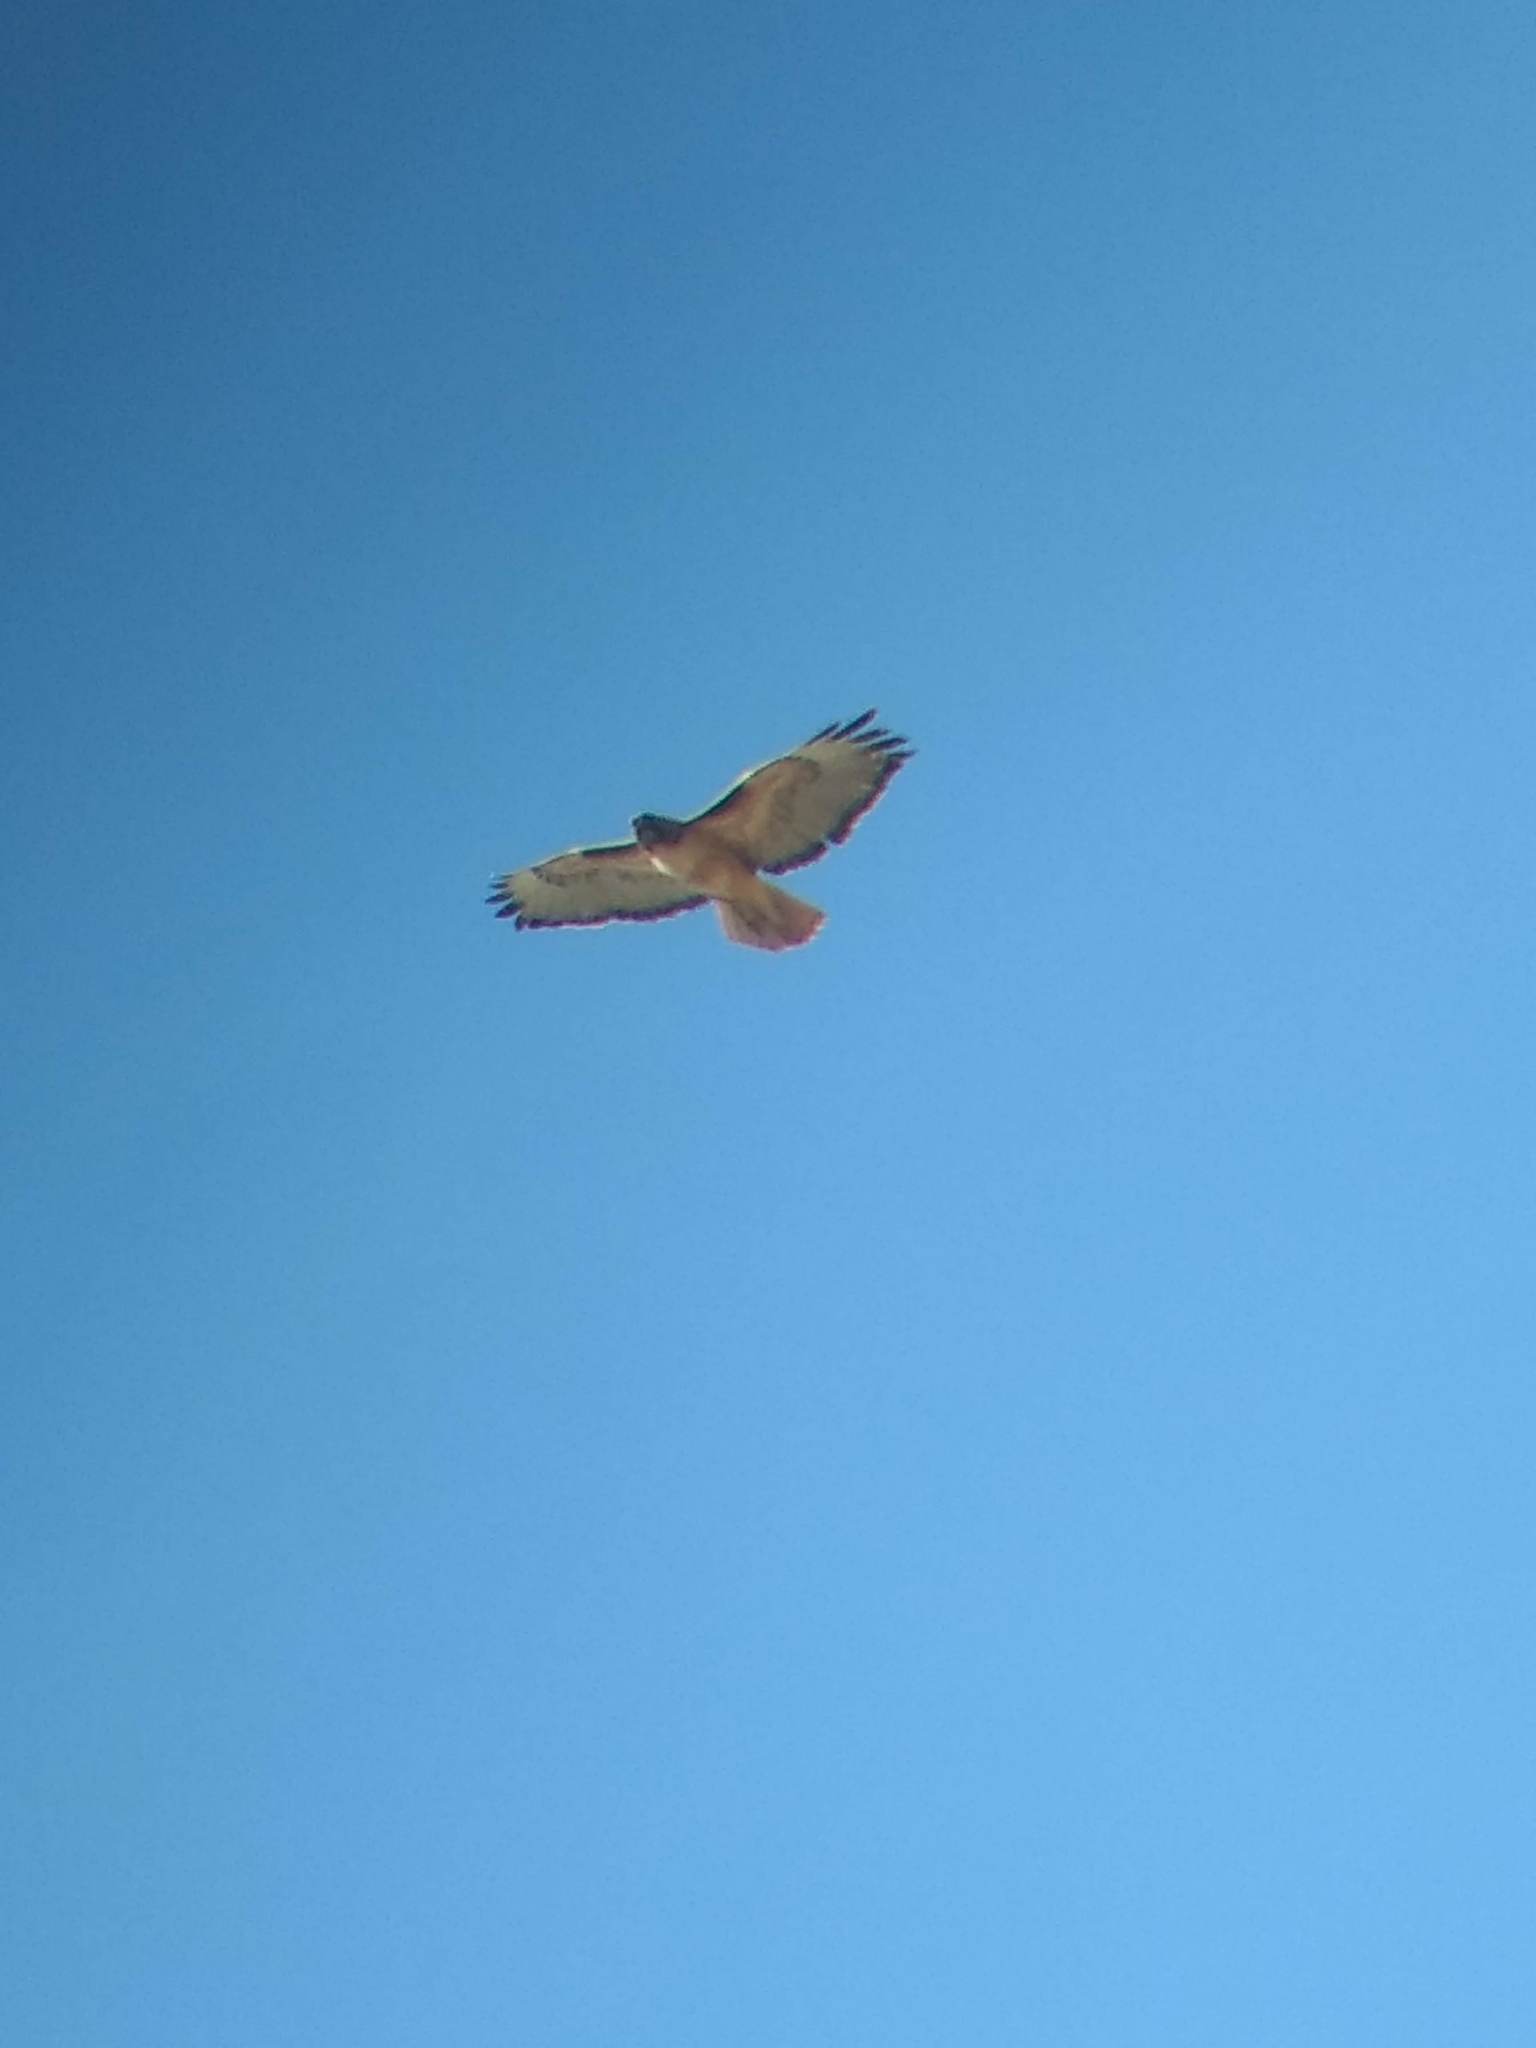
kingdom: Animalia
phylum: Chordata
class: Aves
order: Accipitriformes
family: Accipitridae
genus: Buteo
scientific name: Buteo jamaicensis
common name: Red-tailed hawk
